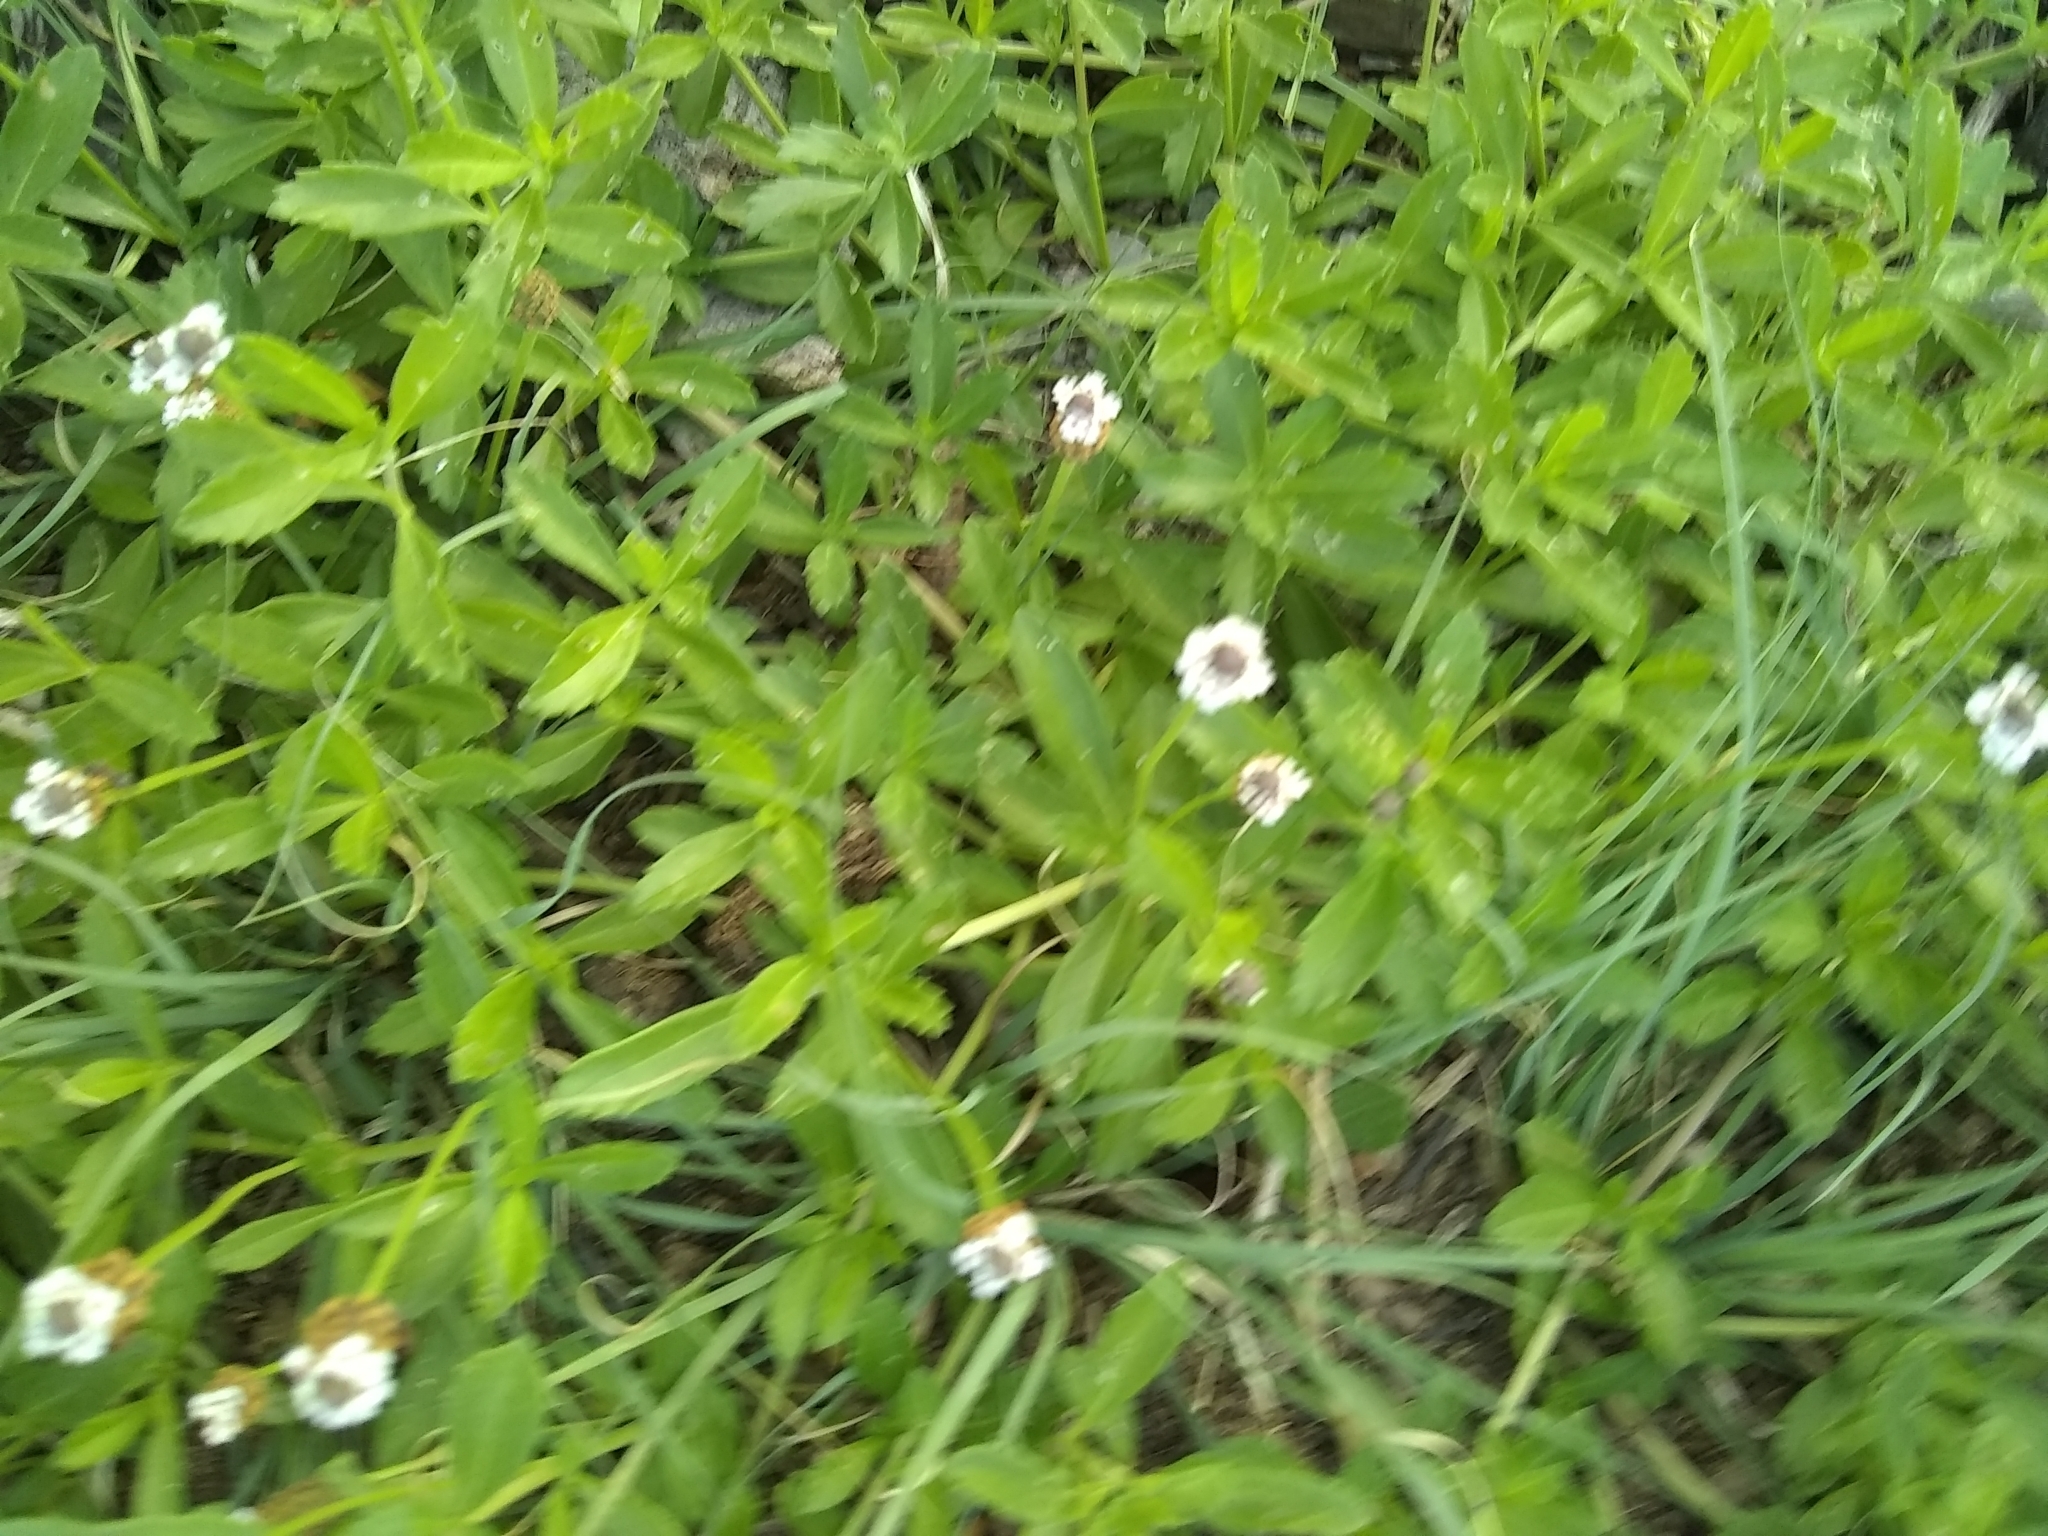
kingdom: Plantae
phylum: Tracheophyta
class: Magnoliopsida
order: Lamiales
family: Verbenaceae
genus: Phyla
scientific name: Phyla nodiflora
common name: Frogfruit
